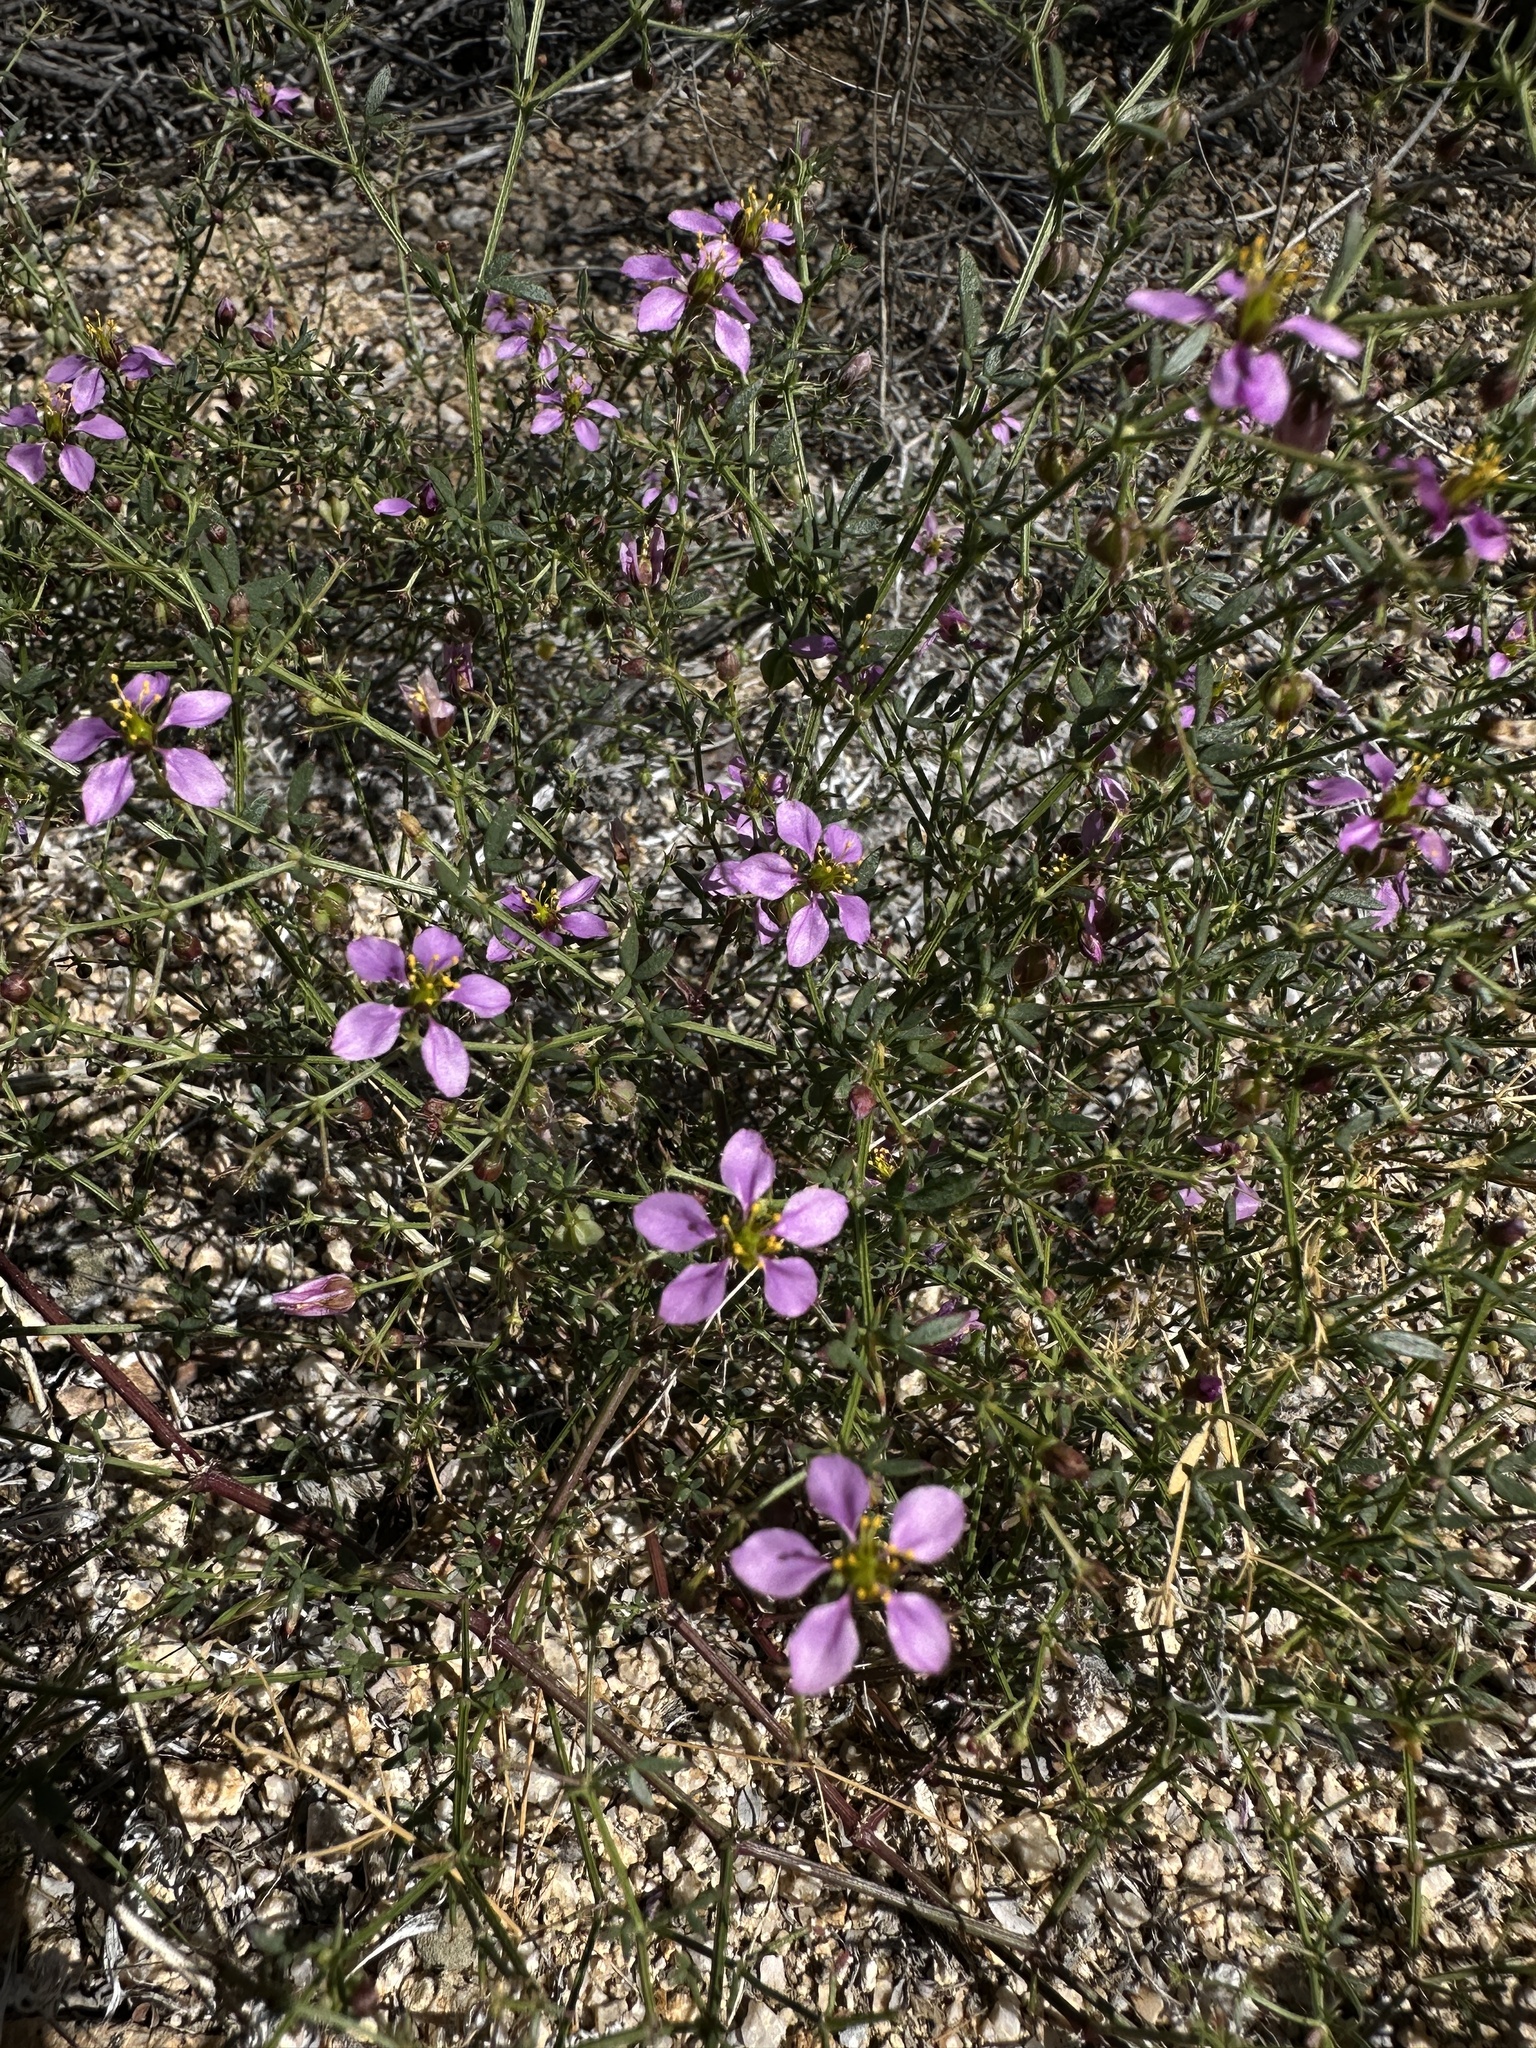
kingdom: Plantae
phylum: Tracheophyta
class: Magnoliopsida
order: Zygophyllales
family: Zygophyllaceae
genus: Fagonia
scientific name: Fagonia laevis
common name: California fagonbush
